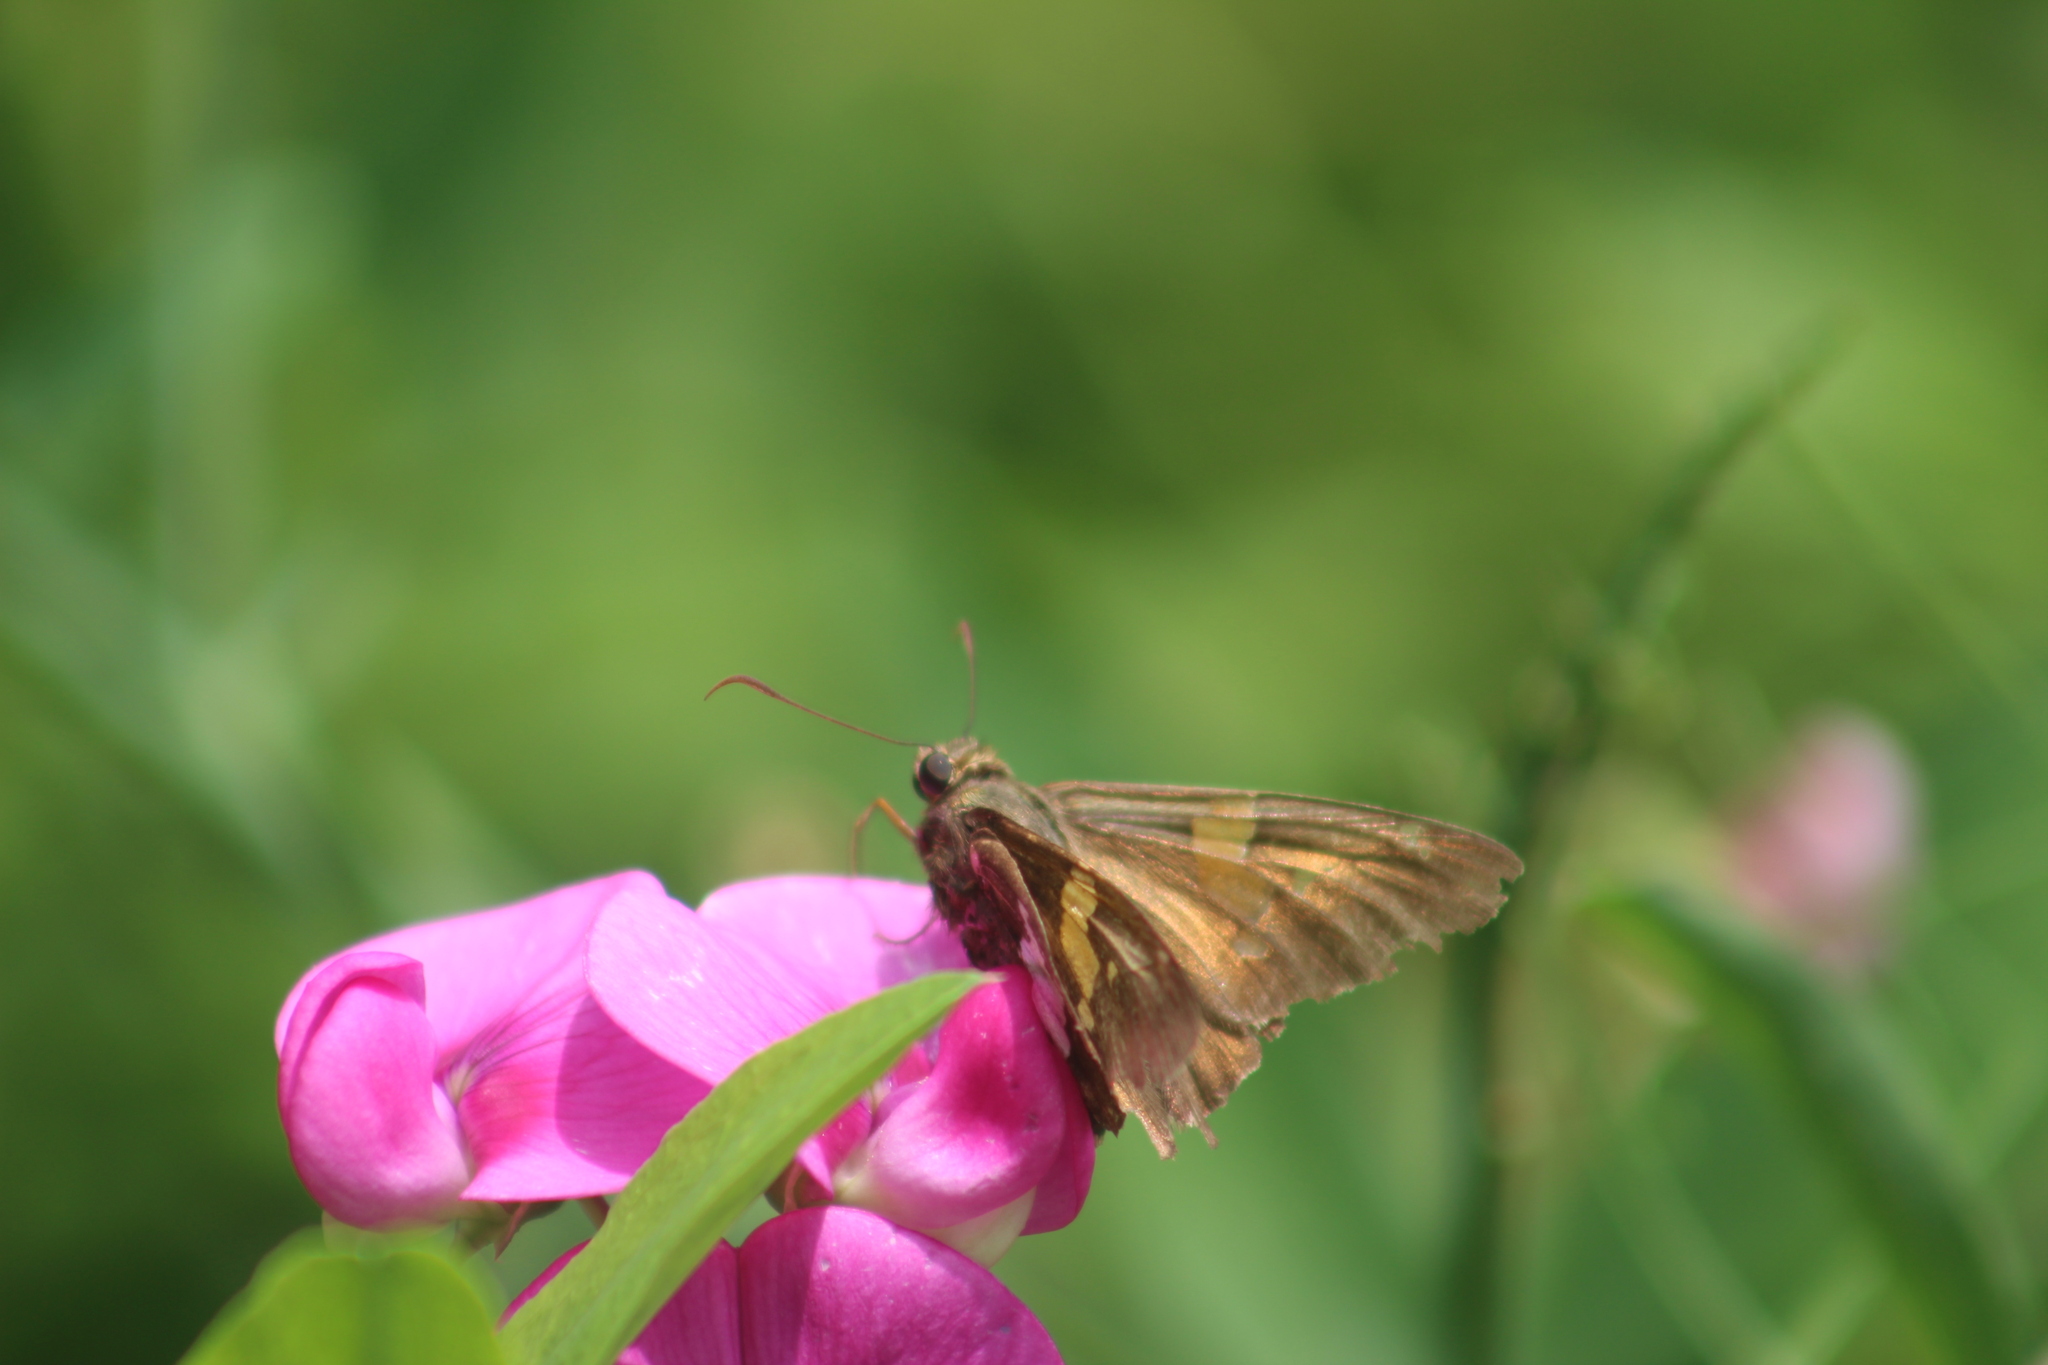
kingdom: Animalia
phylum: Arthropoda
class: Insecta
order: Lepidoptera
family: Hesperiidae
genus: Epargyreus
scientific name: Epargyreus clarus
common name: Silver-spotted skipper
